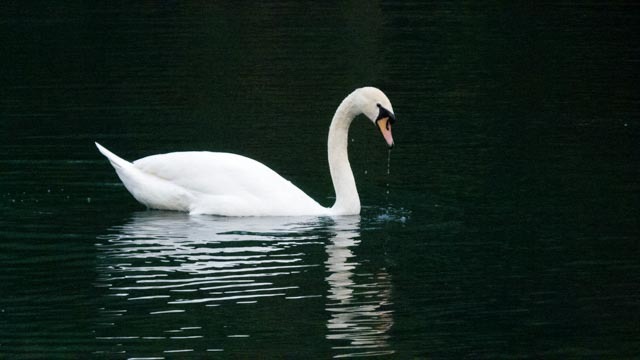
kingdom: Animalia
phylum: Chordata
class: Aves
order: Anseriformes
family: Anatidae
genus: Cygnus
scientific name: Cygnus olor
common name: Mute swan
